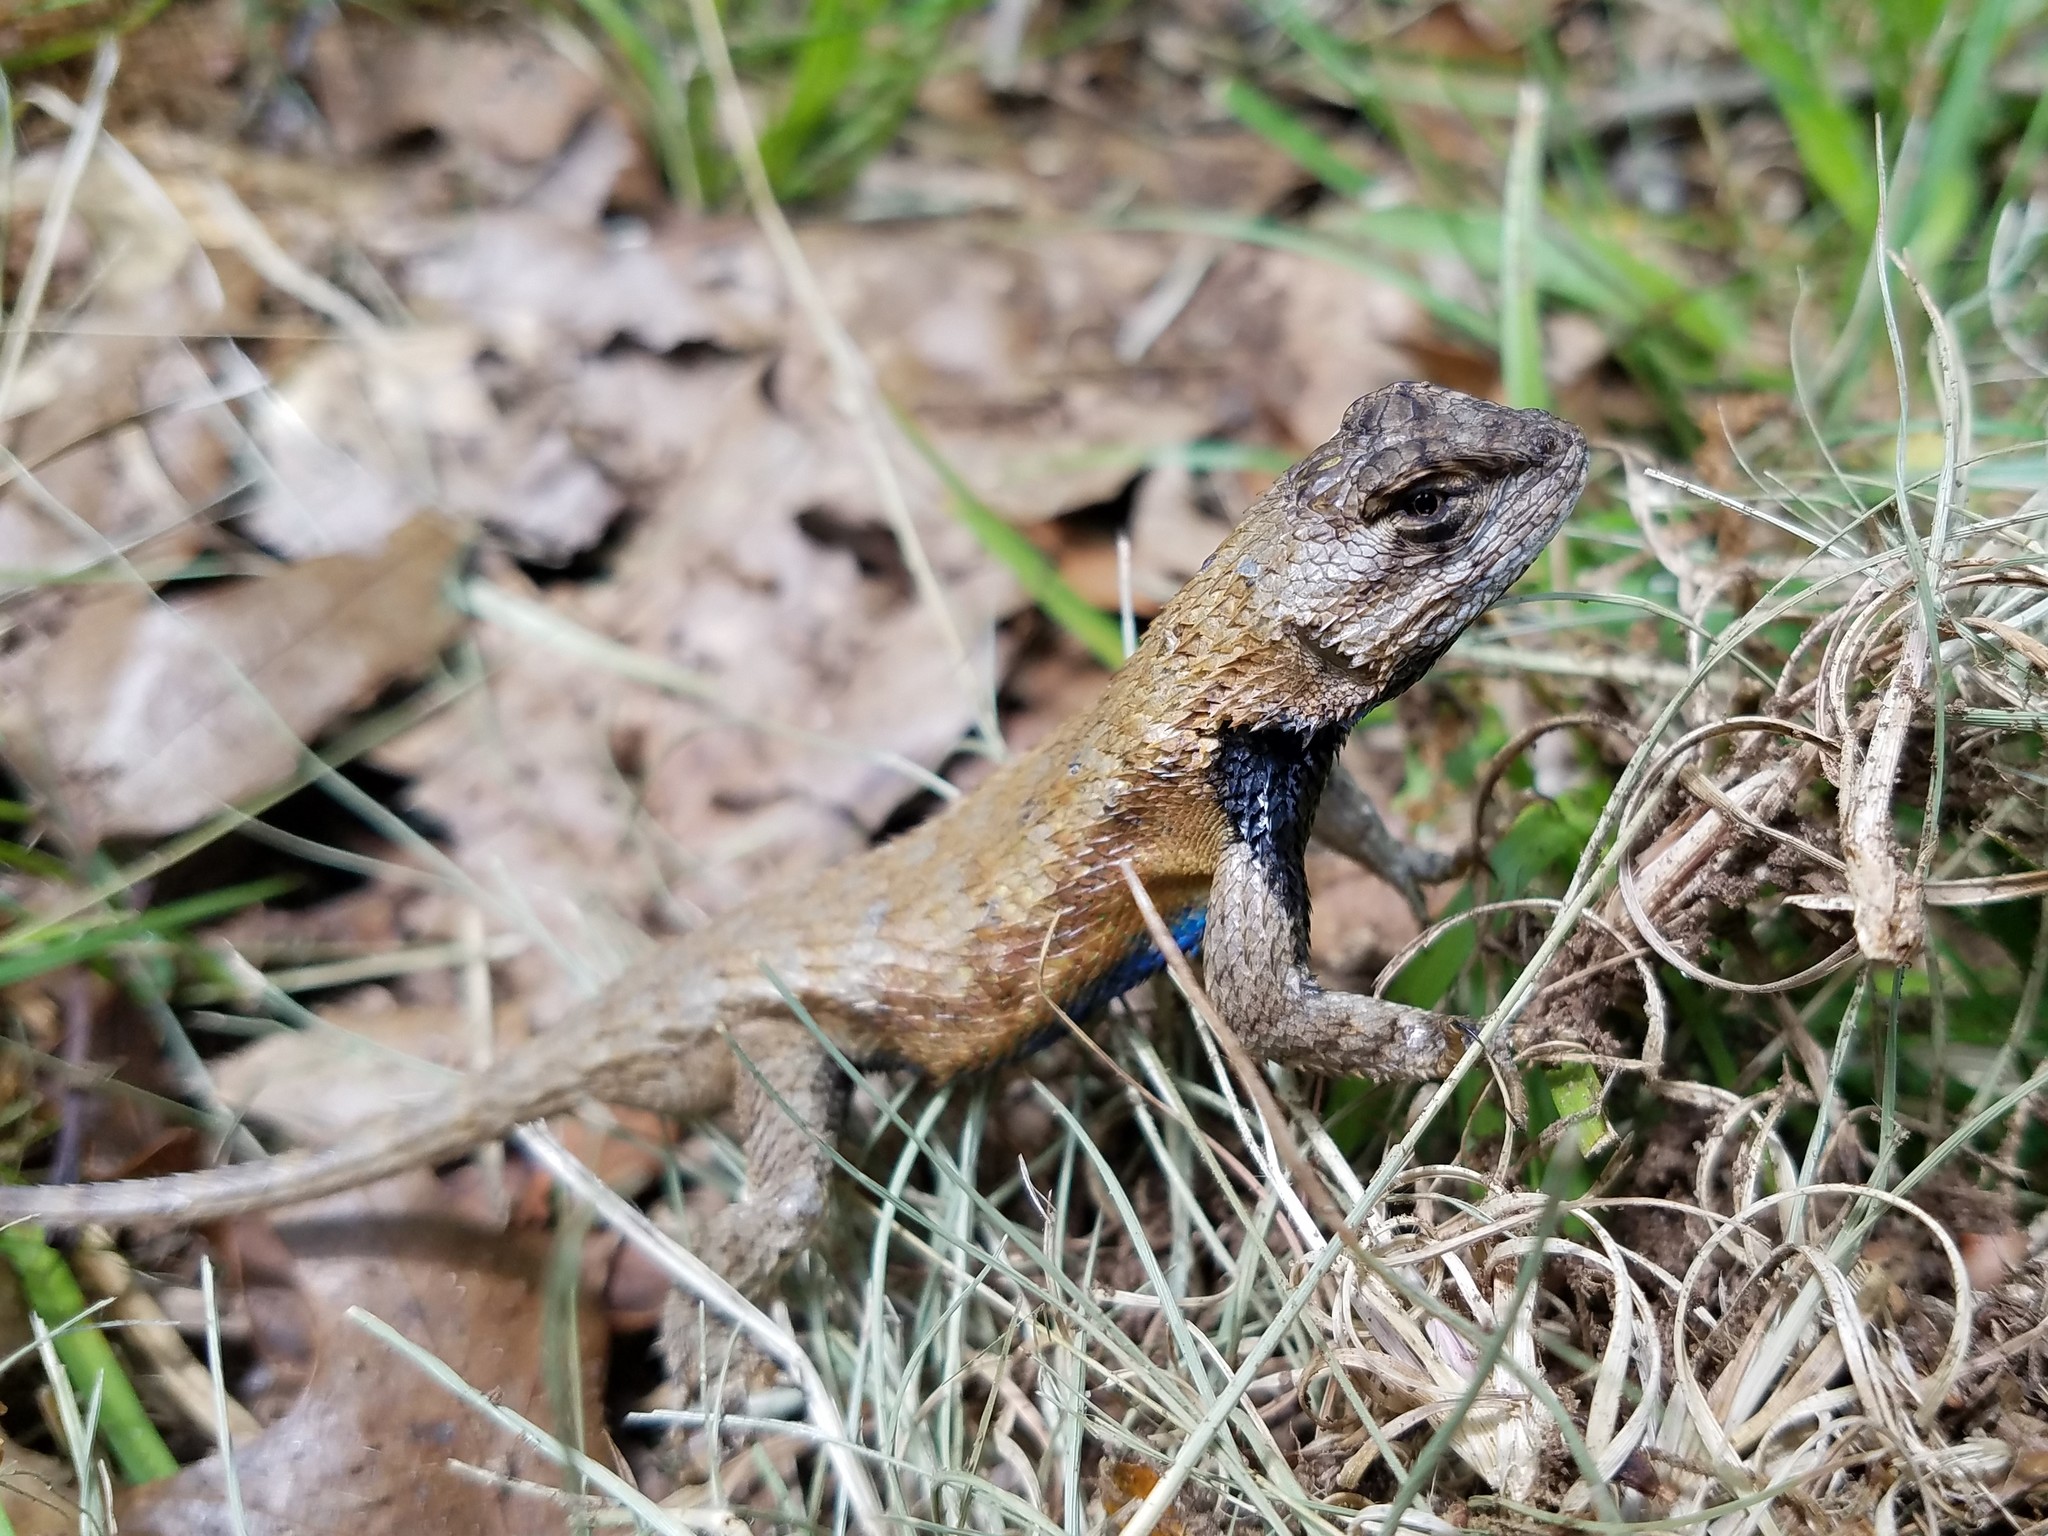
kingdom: Animalia
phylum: Chordata
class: Squamata
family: Phrynosomatidae
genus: Sceloporus
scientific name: Sceloporus undulatus
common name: Eastern fence lizard
